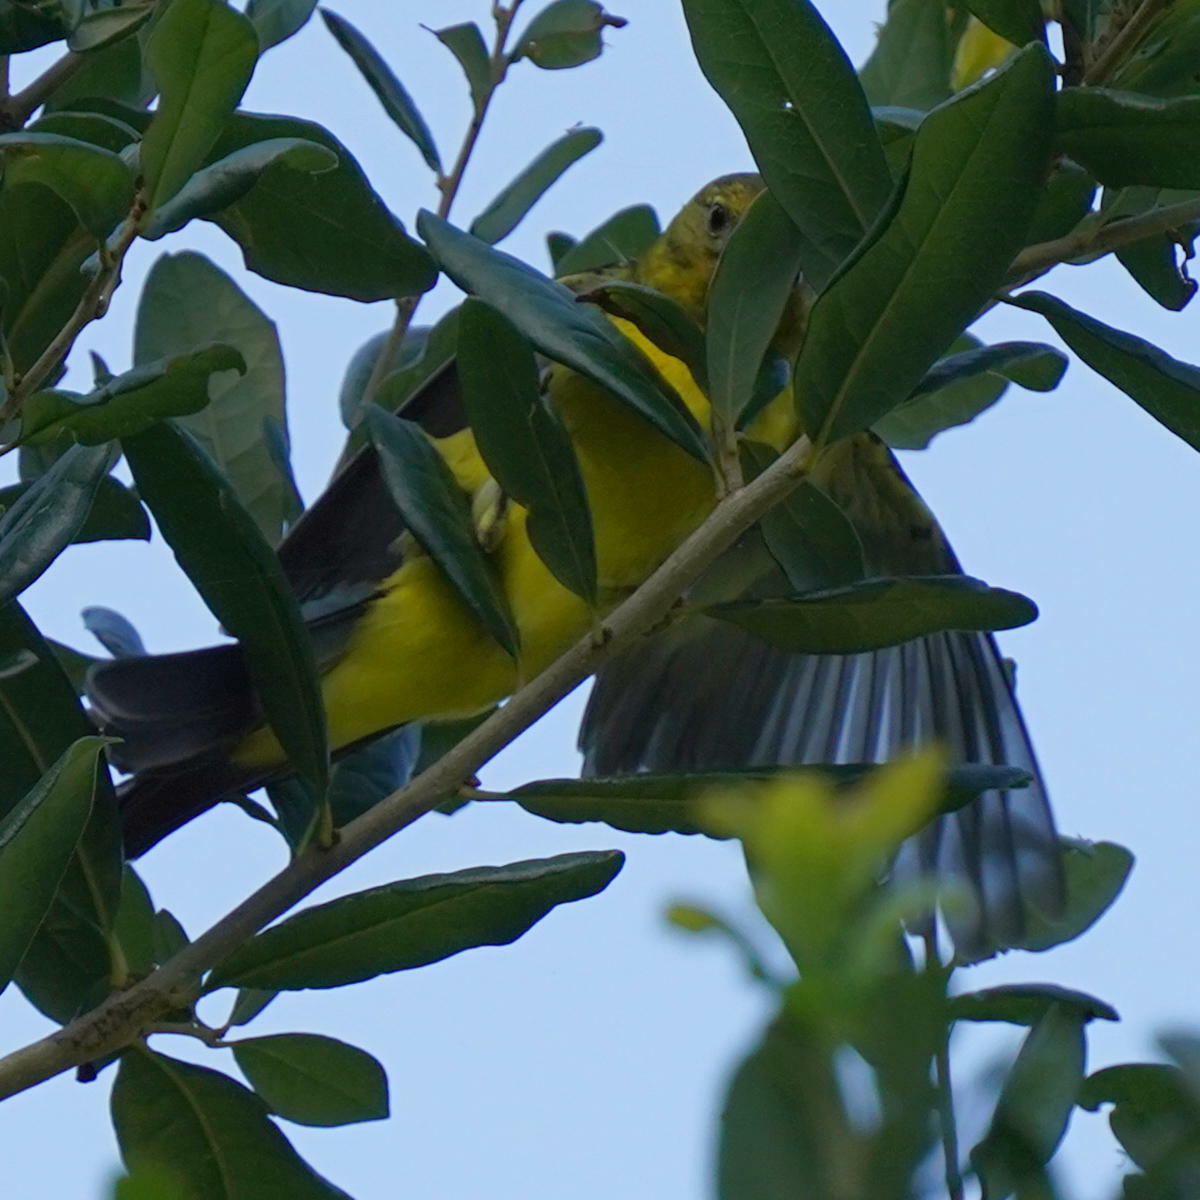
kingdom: Animalia
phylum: Chordata
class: Aves
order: Passeriformes
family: Cardinalidae
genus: Piranga
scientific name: Piranga ludoviciana
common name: Western tanager
